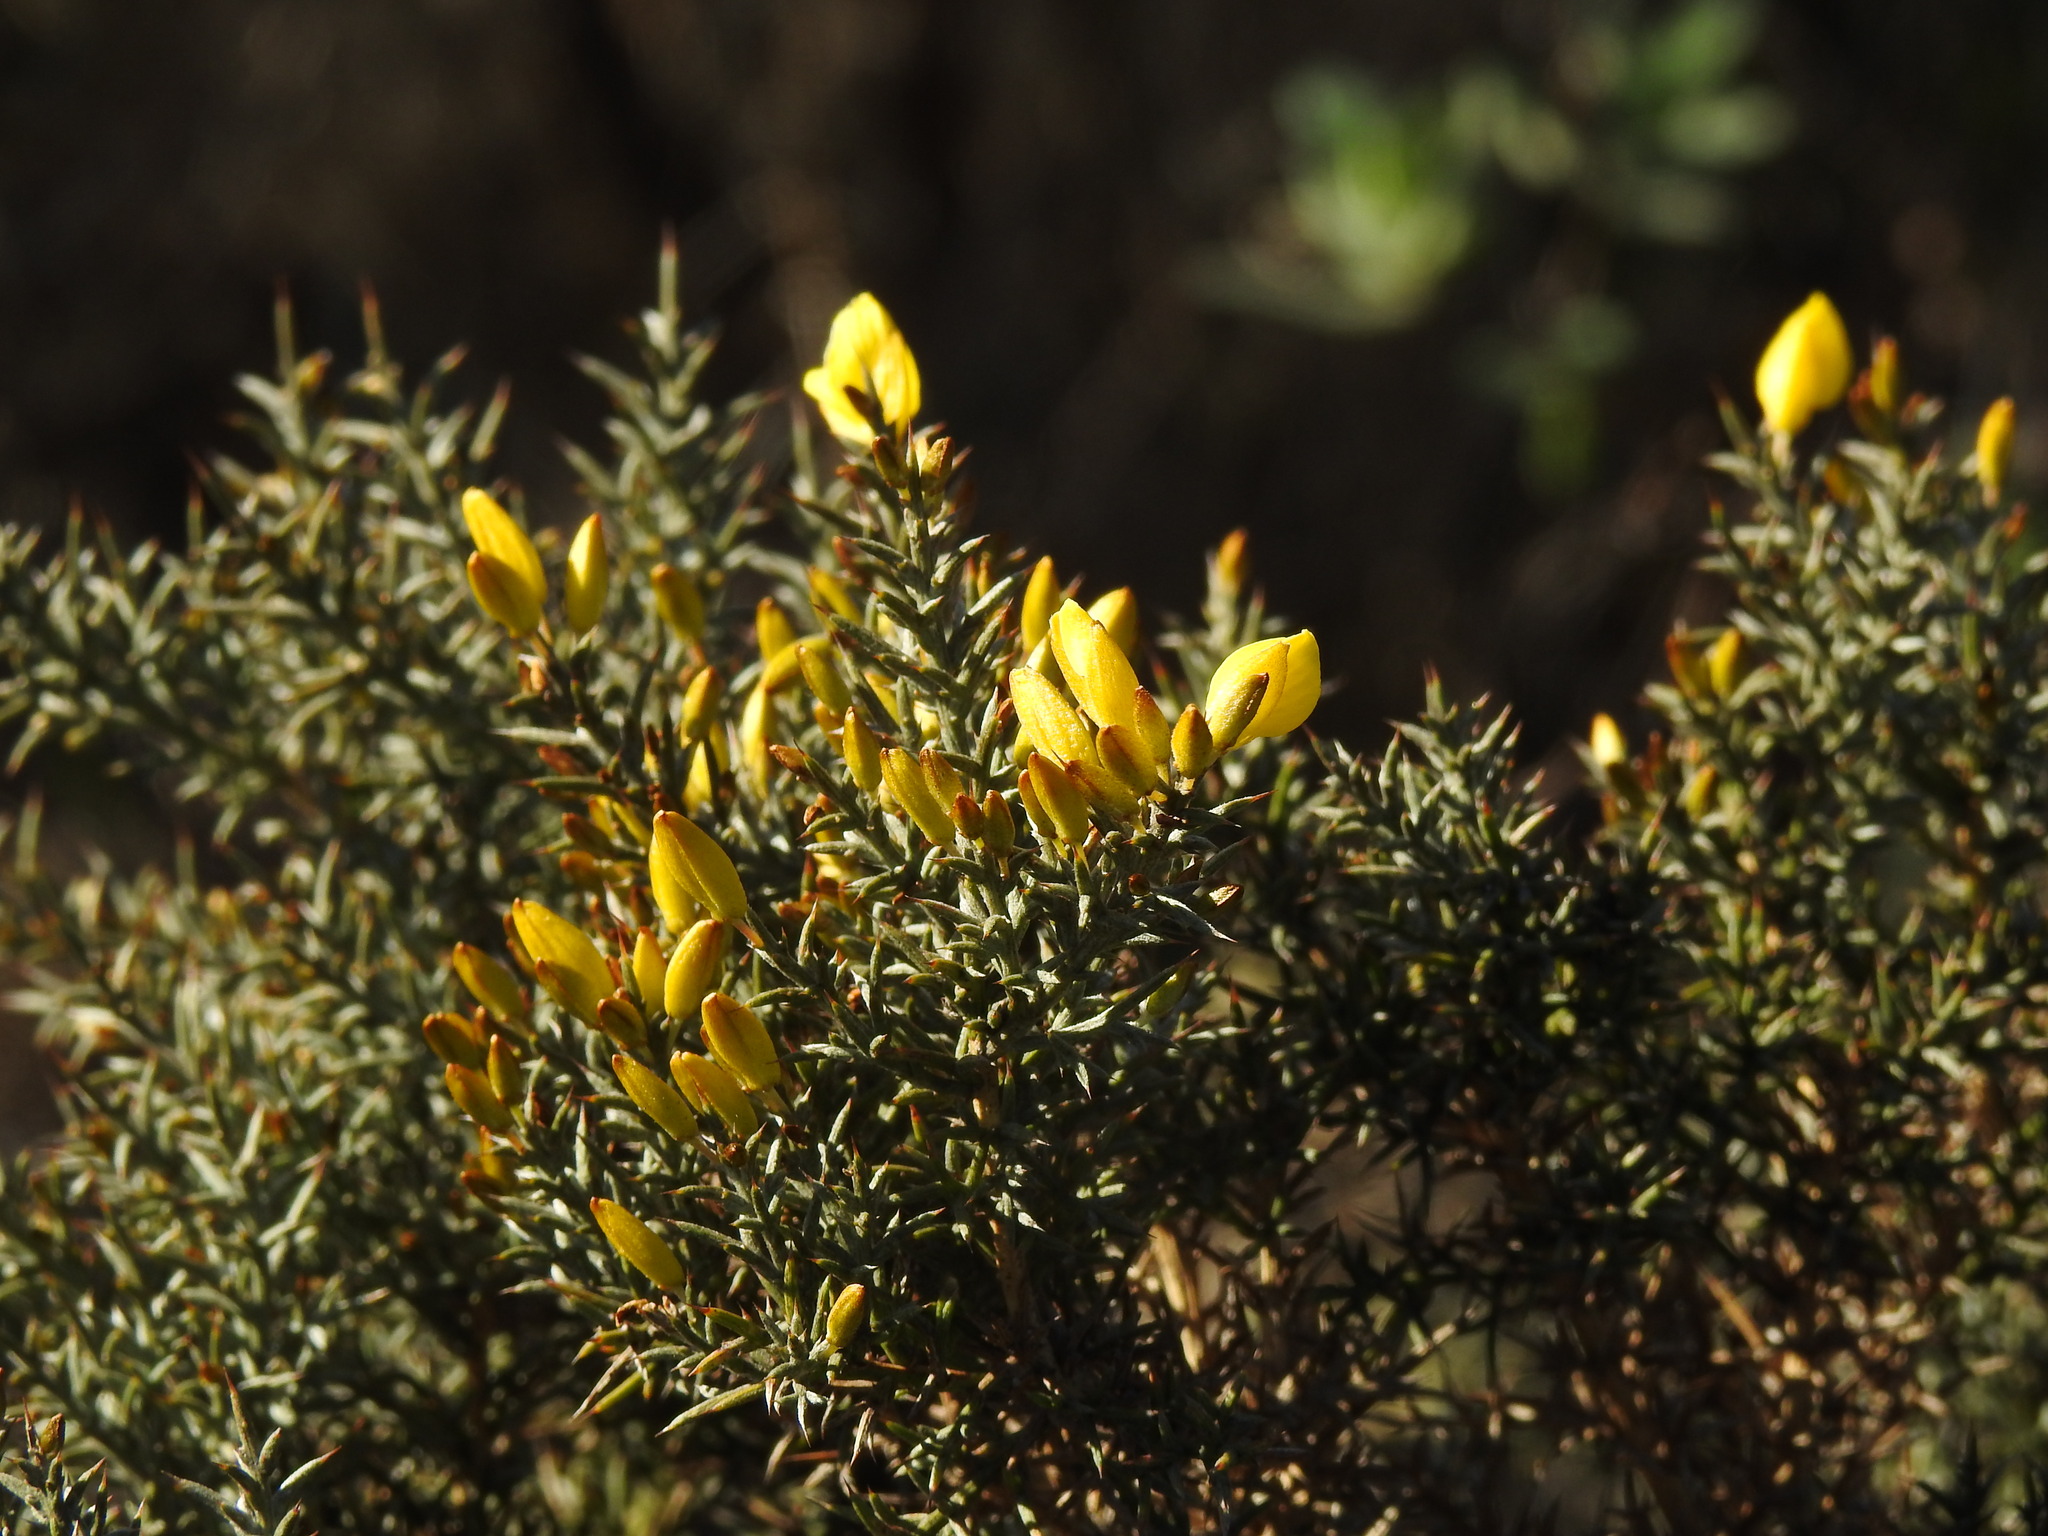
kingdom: Plantae
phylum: Tracheophyta
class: Magnoliopsida
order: Fabales
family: Fabaceae
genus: Ulex
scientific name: Ulex argenteus
